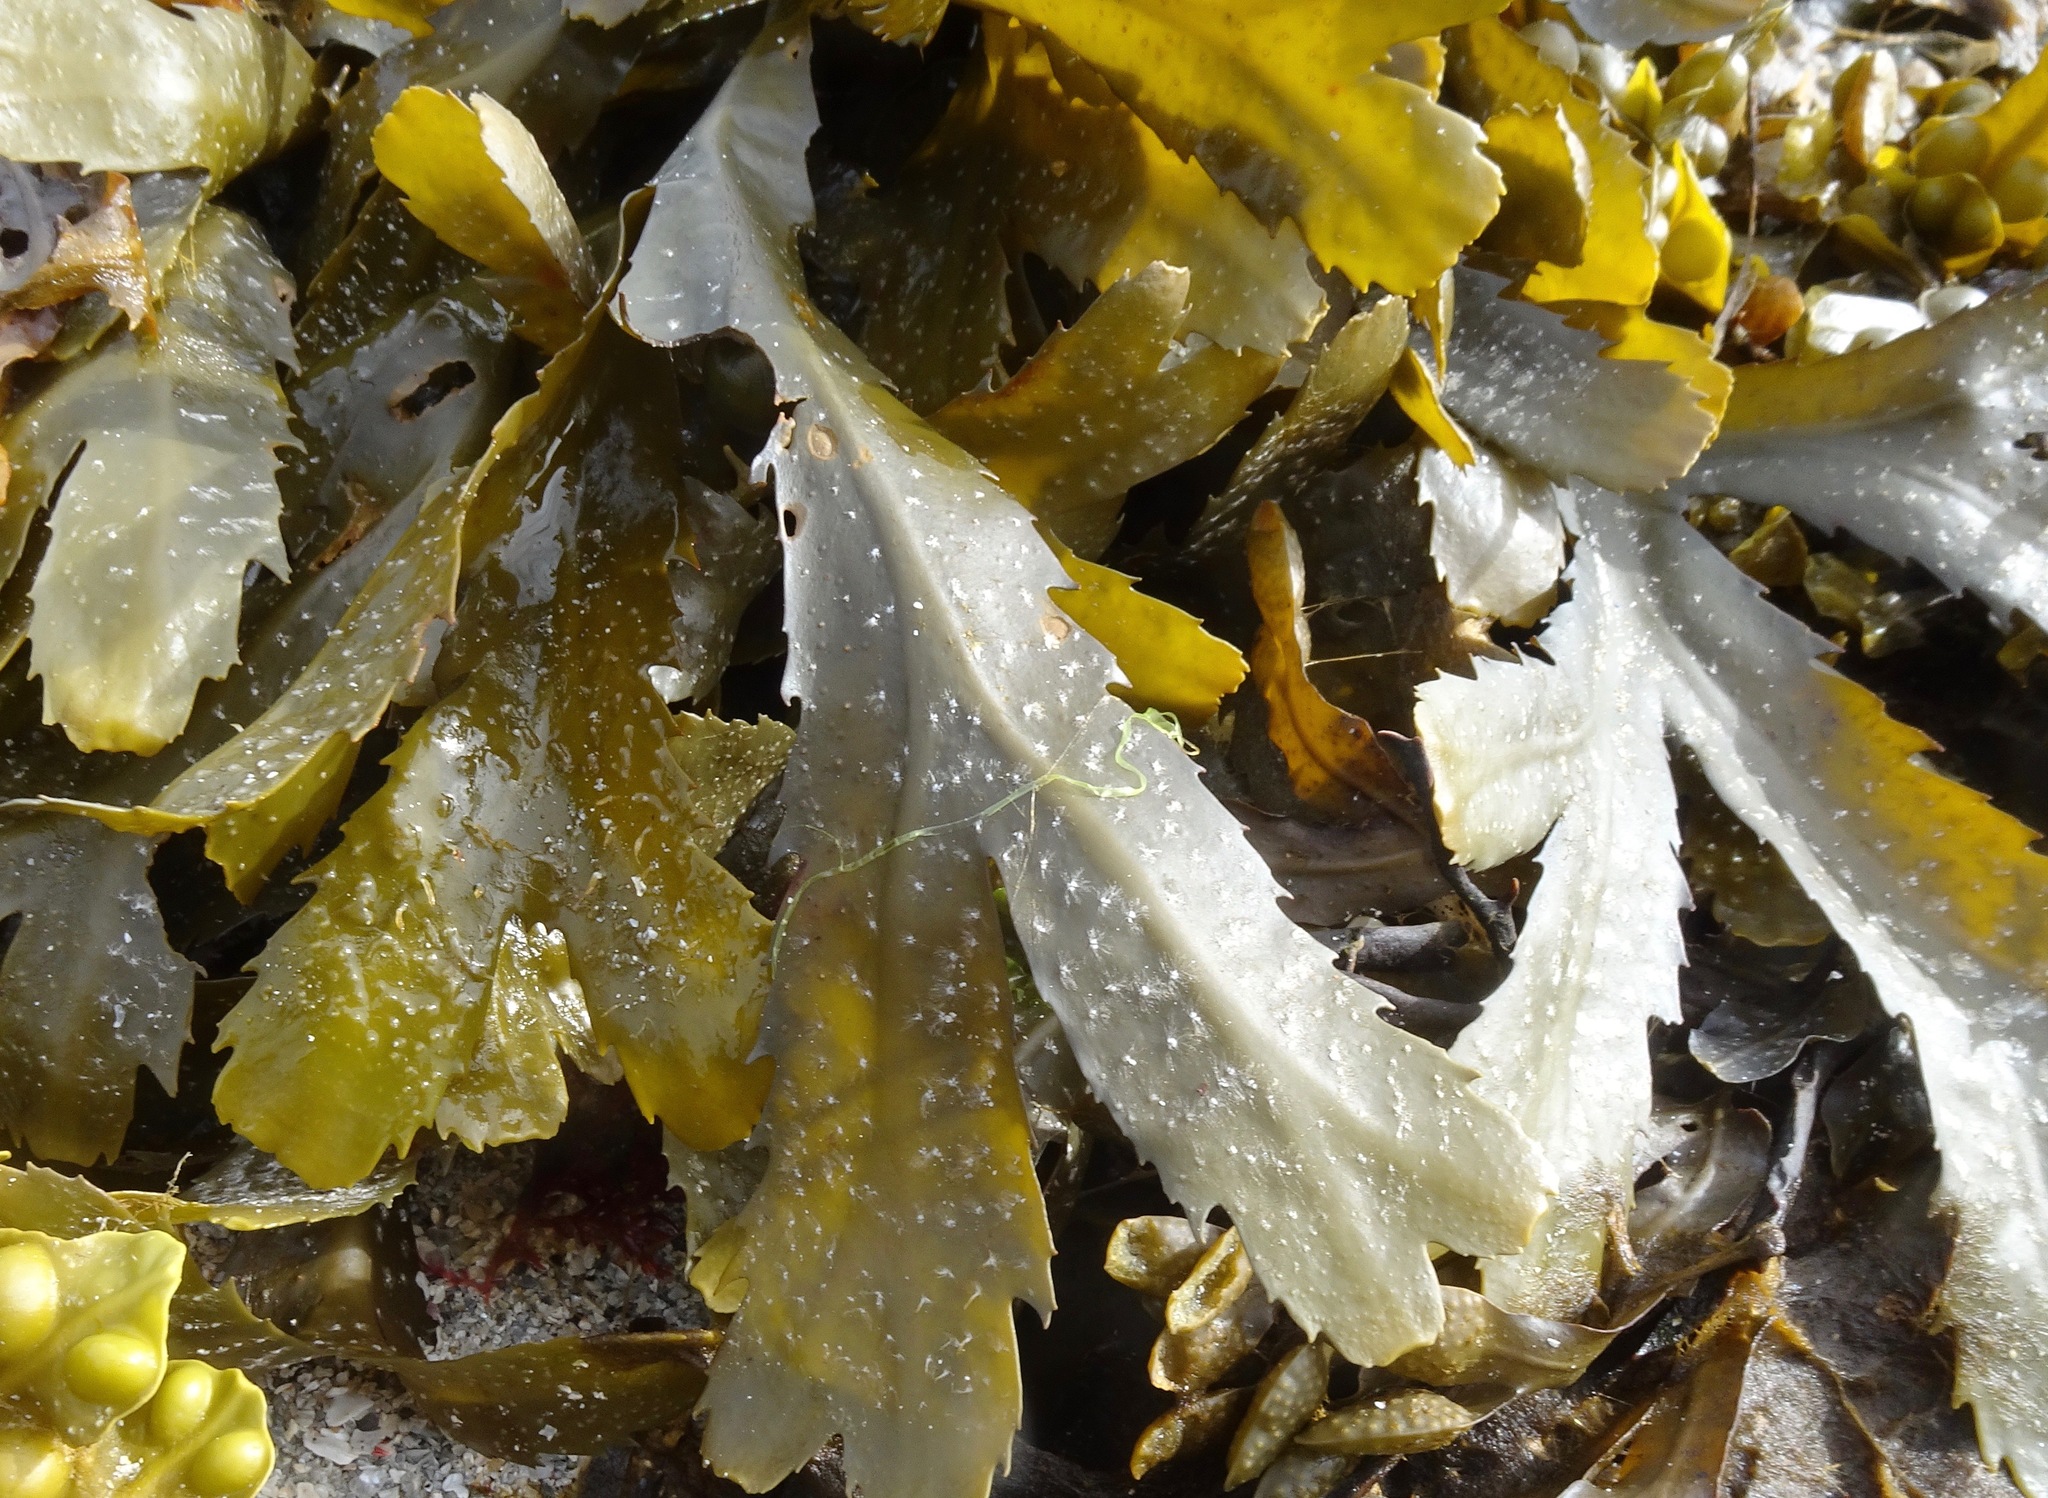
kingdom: Chromista
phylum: Ochrophyta
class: Phaeophyceae
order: Fucales
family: Fucaceae
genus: Fucus
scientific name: Fucus serratus
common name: Toothed wrack
